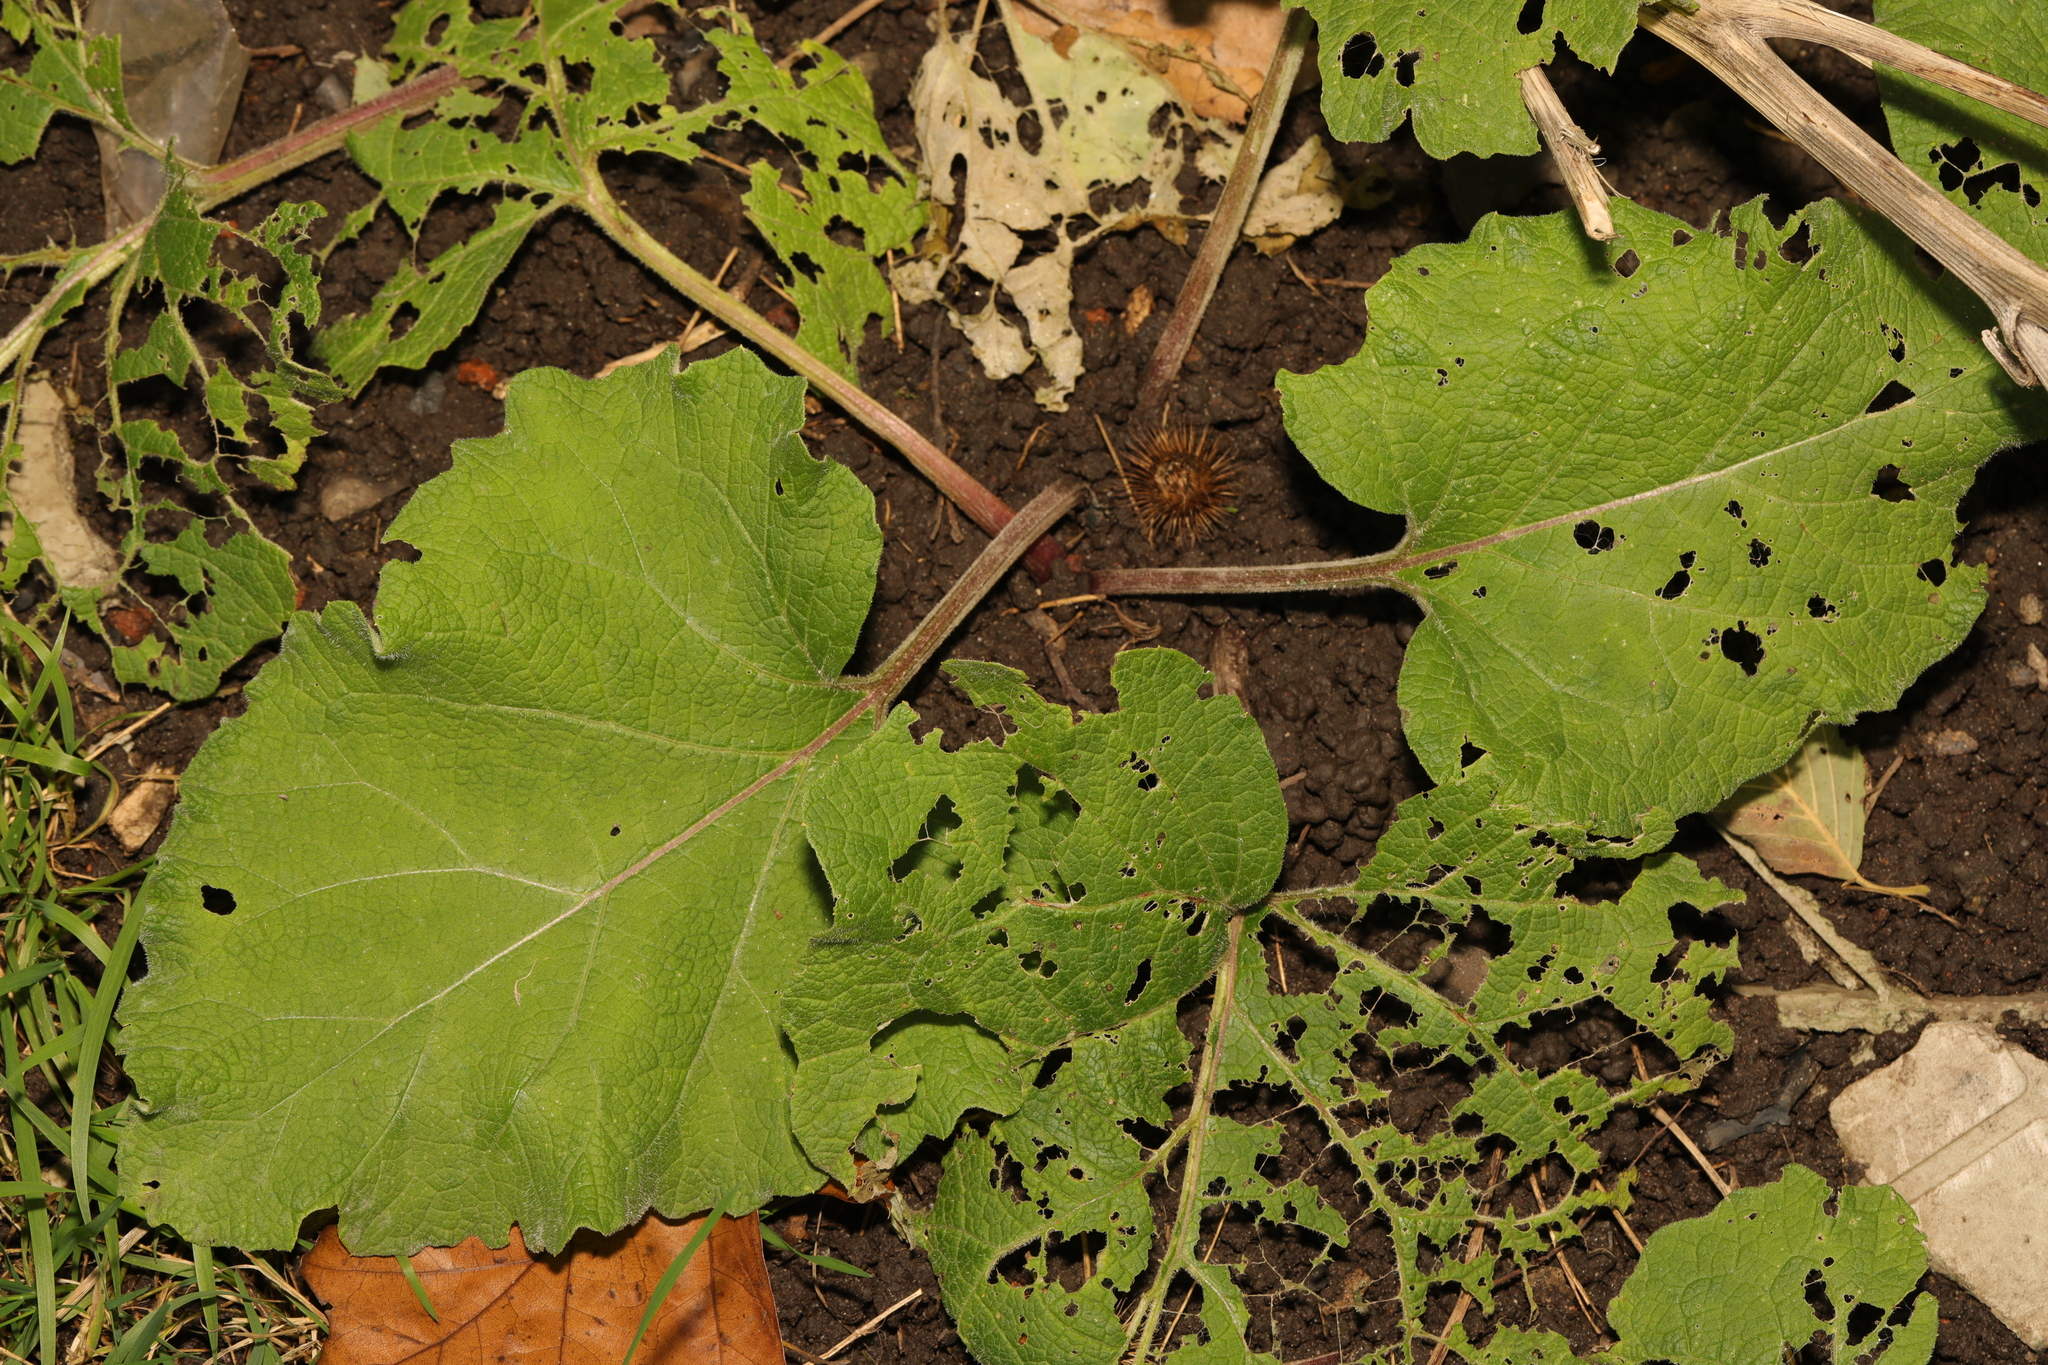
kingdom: Plantae
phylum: Tracheophyta
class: Magnoliopsida
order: Asterales
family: Asteraceae
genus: Arctium
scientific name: Arctium minus
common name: Lesser burdock
